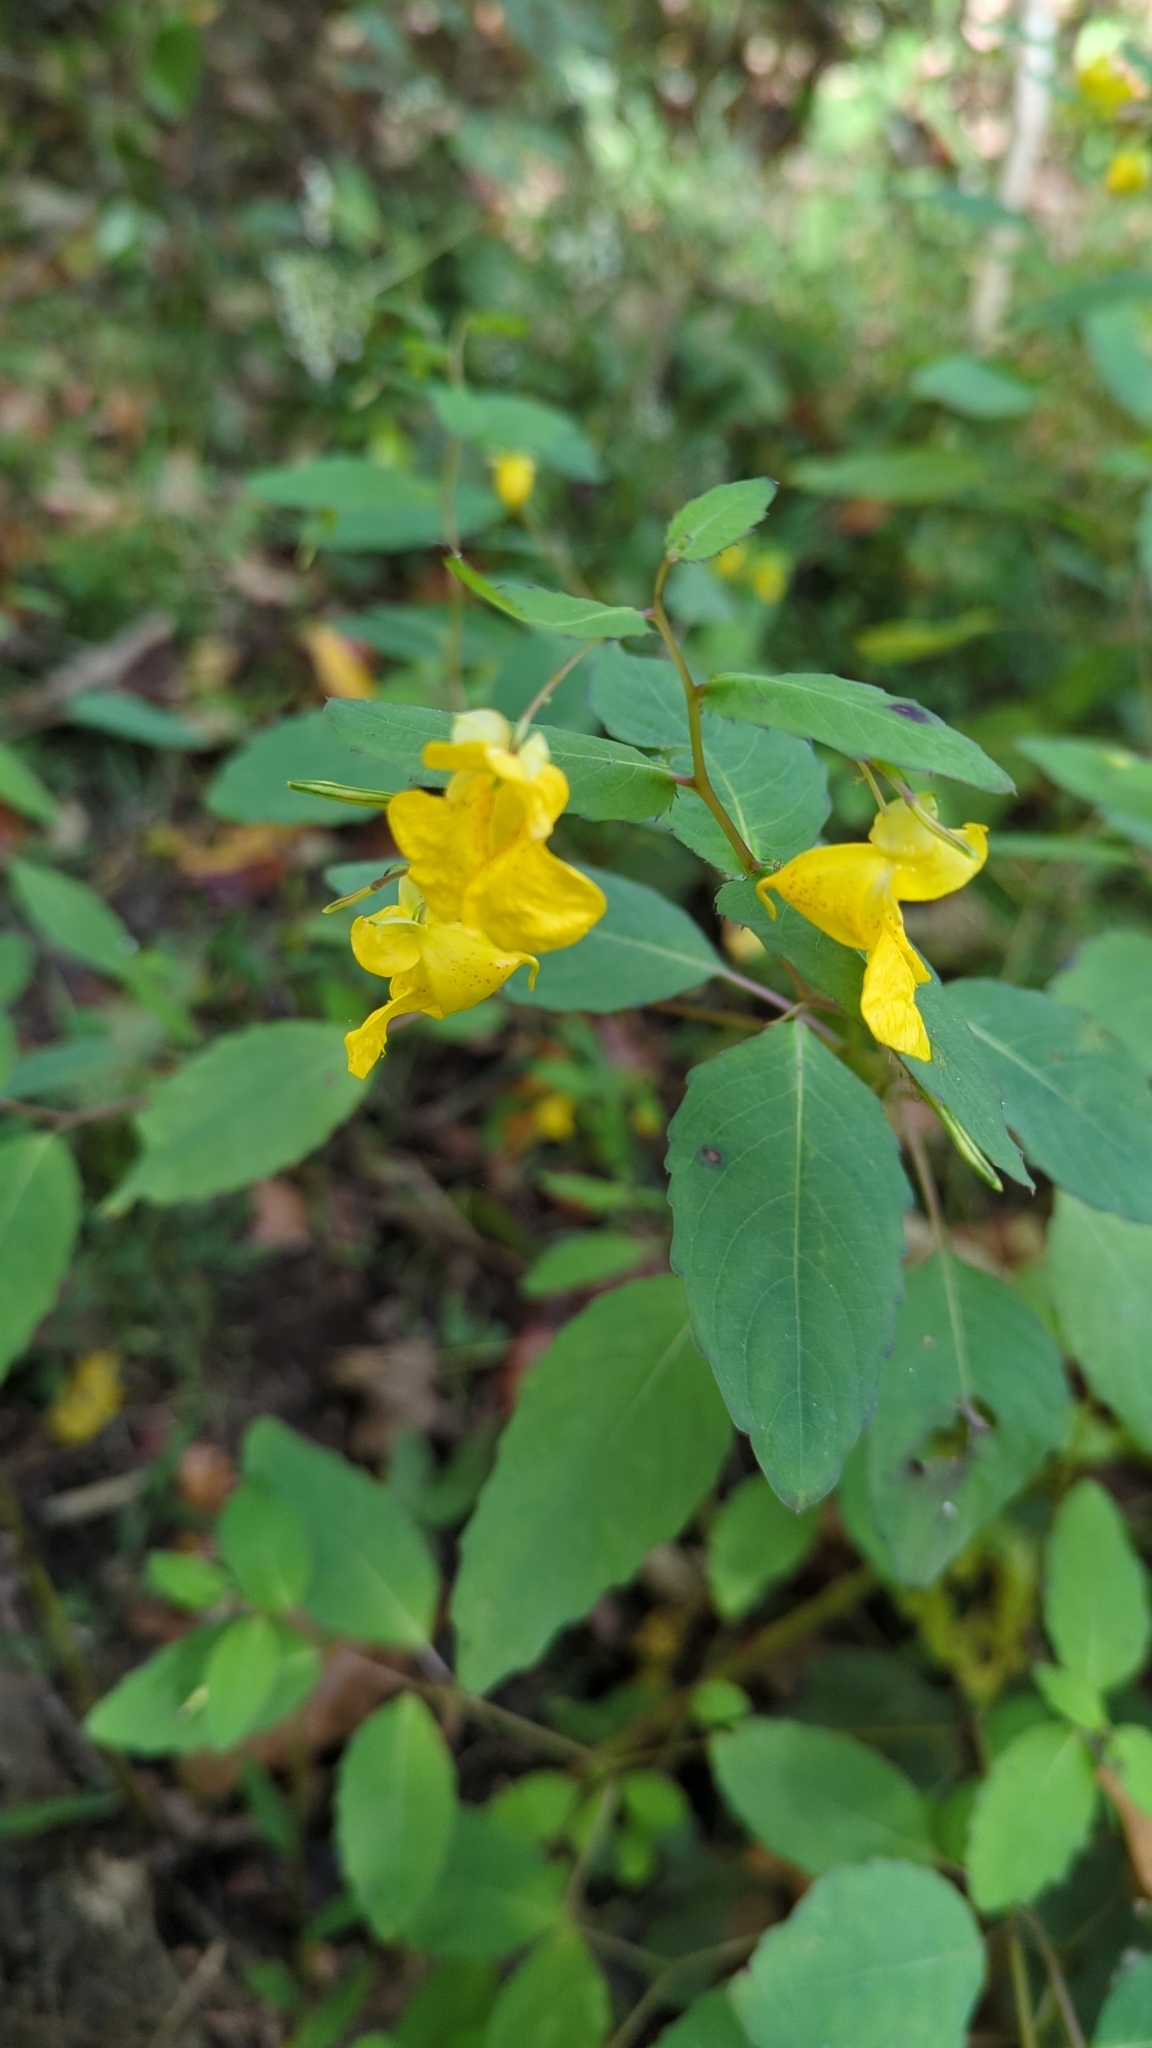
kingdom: Plantae
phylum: Tracheophyta
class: Magnoliopsida
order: Ericales
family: Balsaminaceae
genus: Impatiens
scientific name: Impatiens pallida
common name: Pale snapweed
